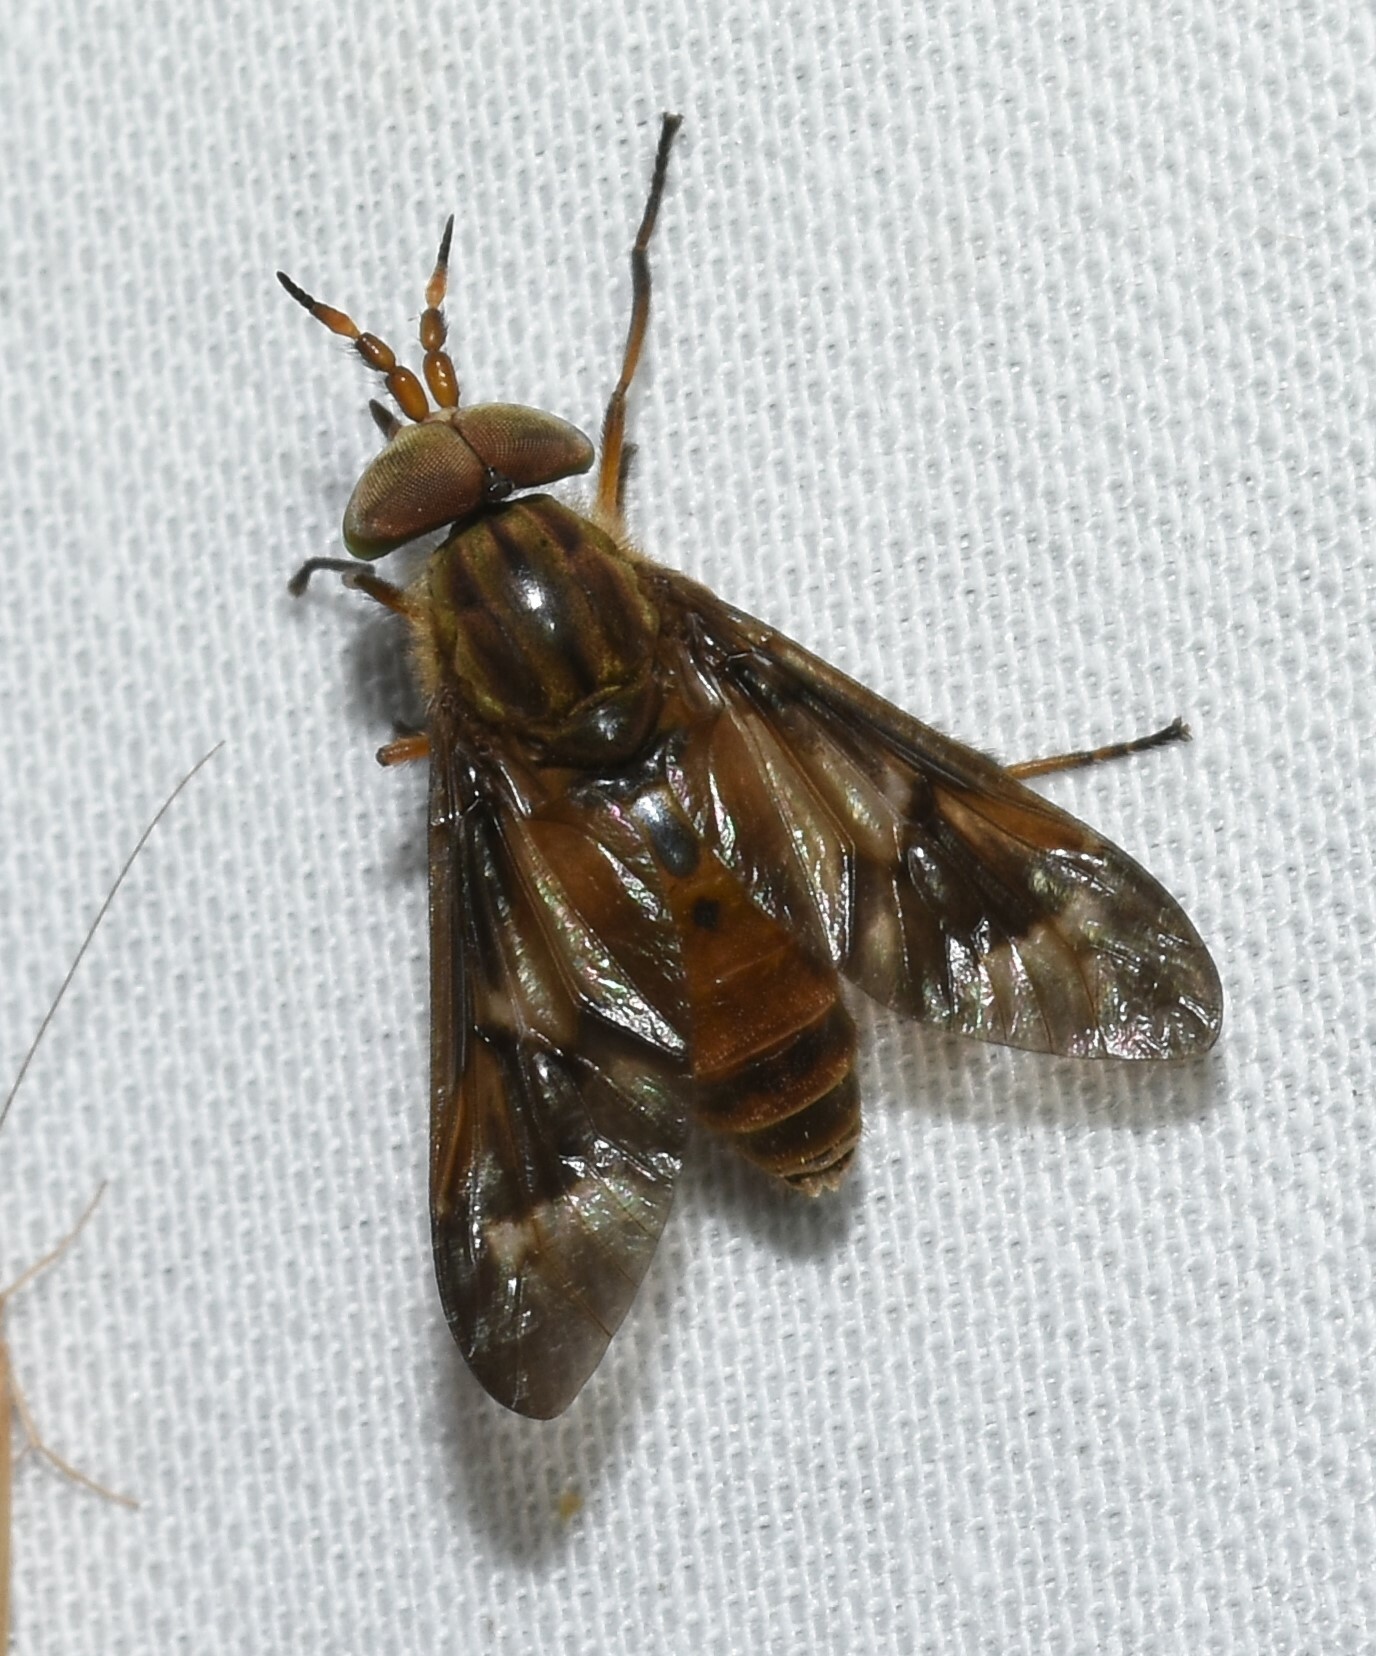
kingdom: Animalia
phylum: Arthropoda
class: Insecta
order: Diptera
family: Tabanidae
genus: Chrysops
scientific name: Chrysops brunneus
